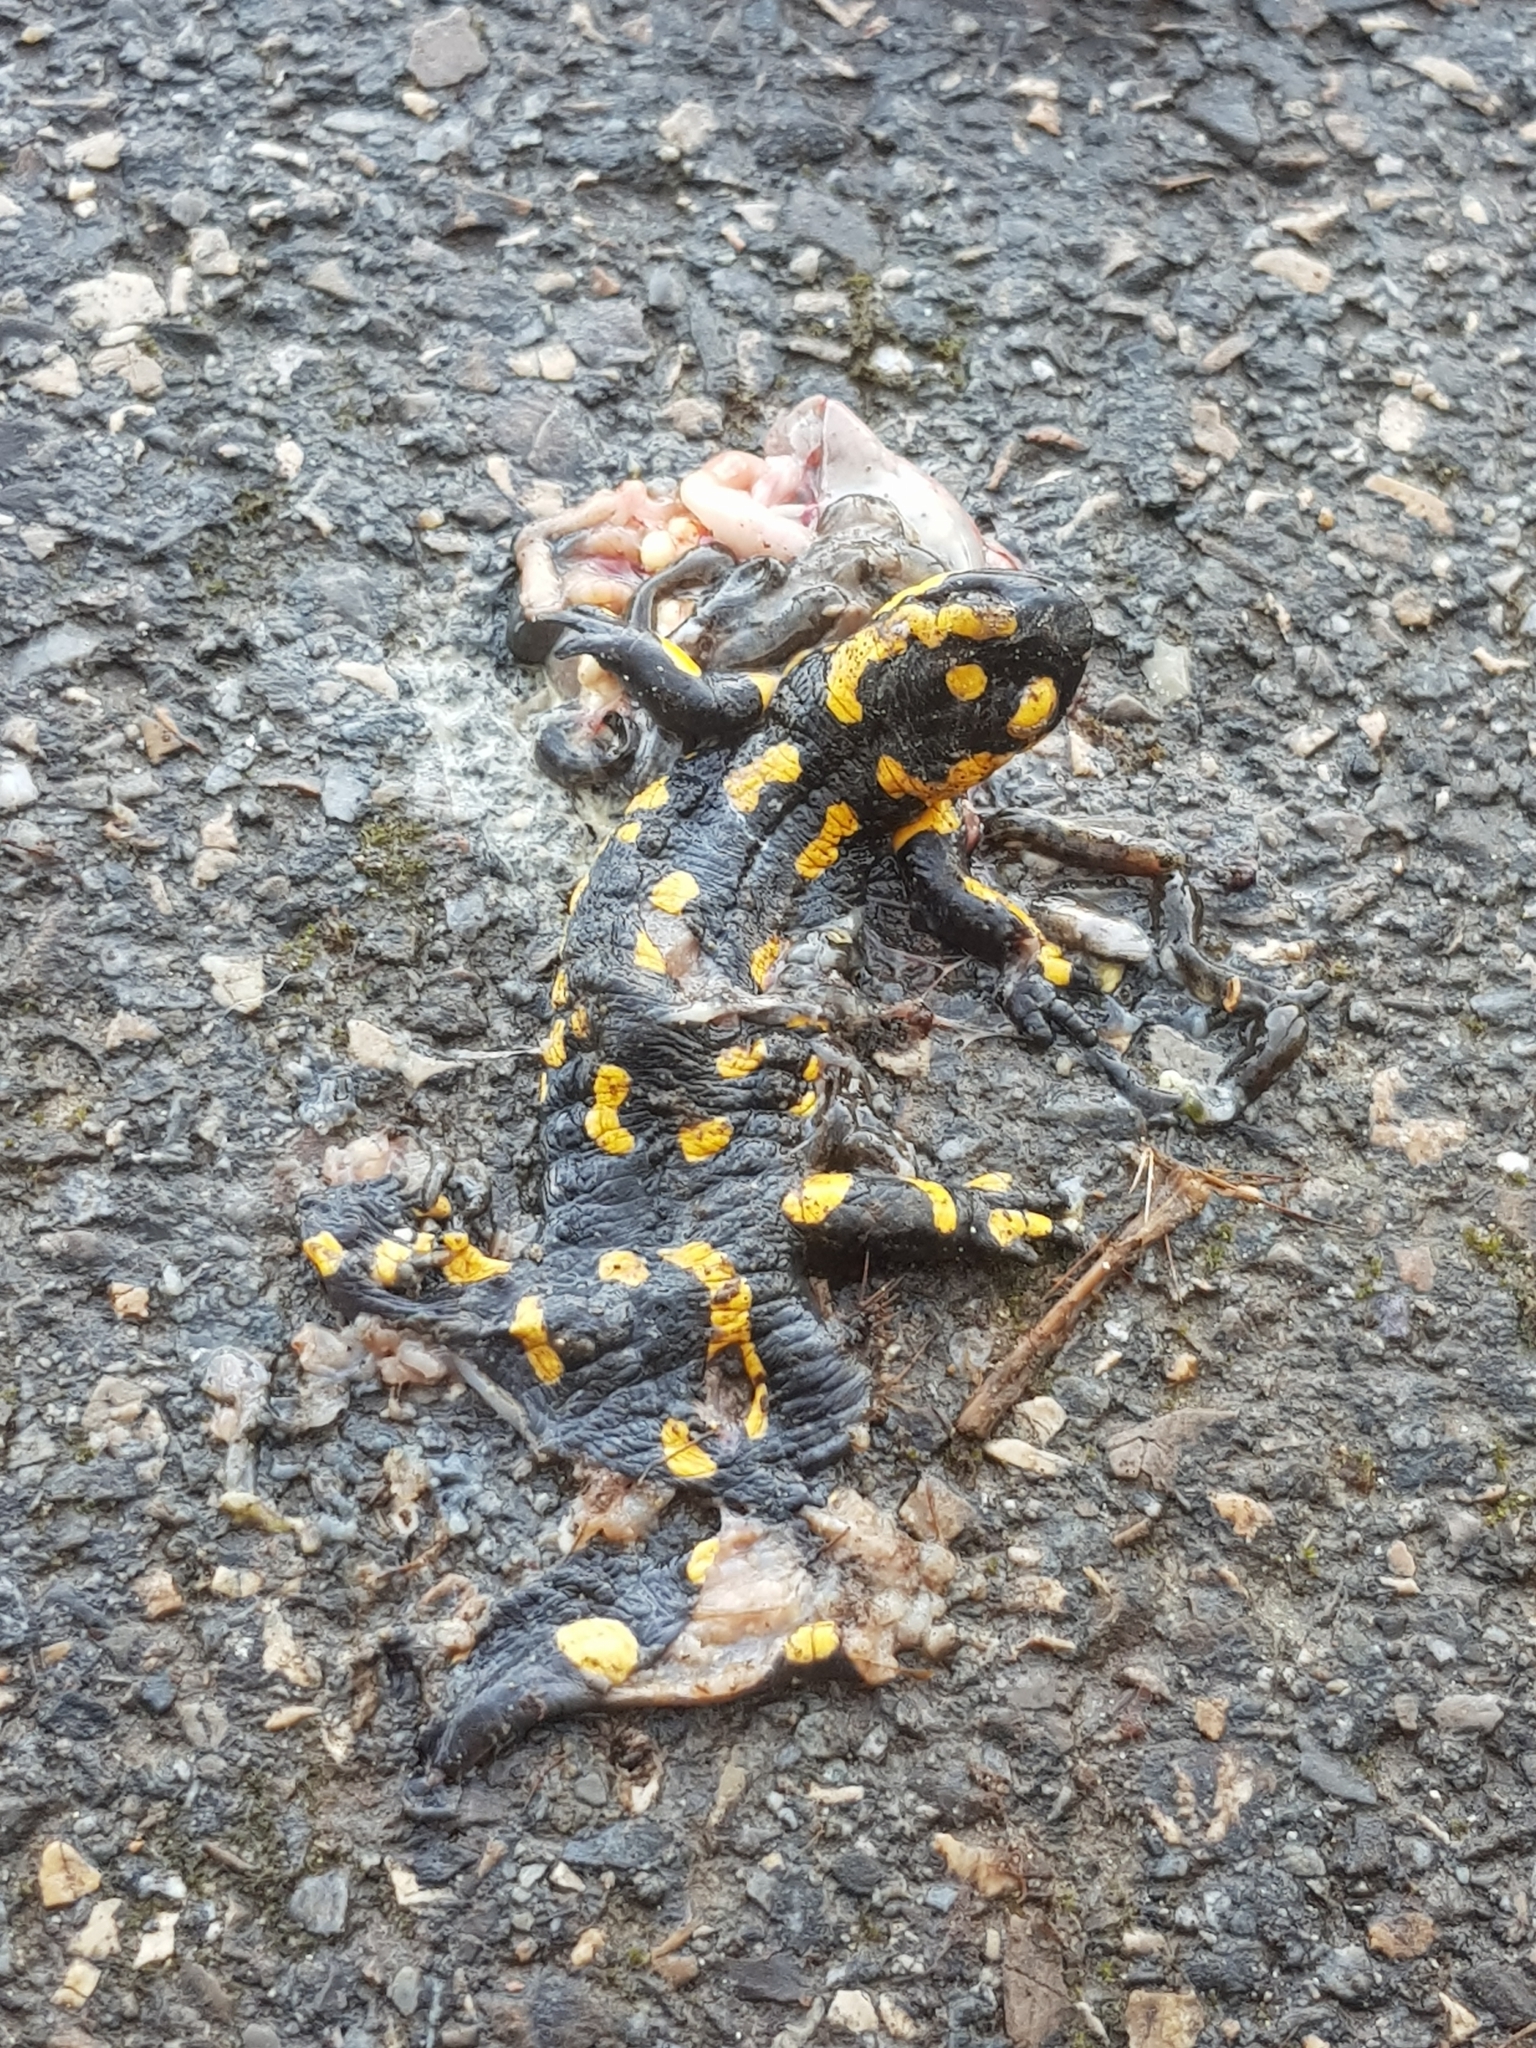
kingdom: Animalia
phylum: Chordata
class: Amphibia
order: Caudata
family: Salamandridae
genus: Salamandra
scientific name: Salamandra salamandra
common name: Fire salamander
